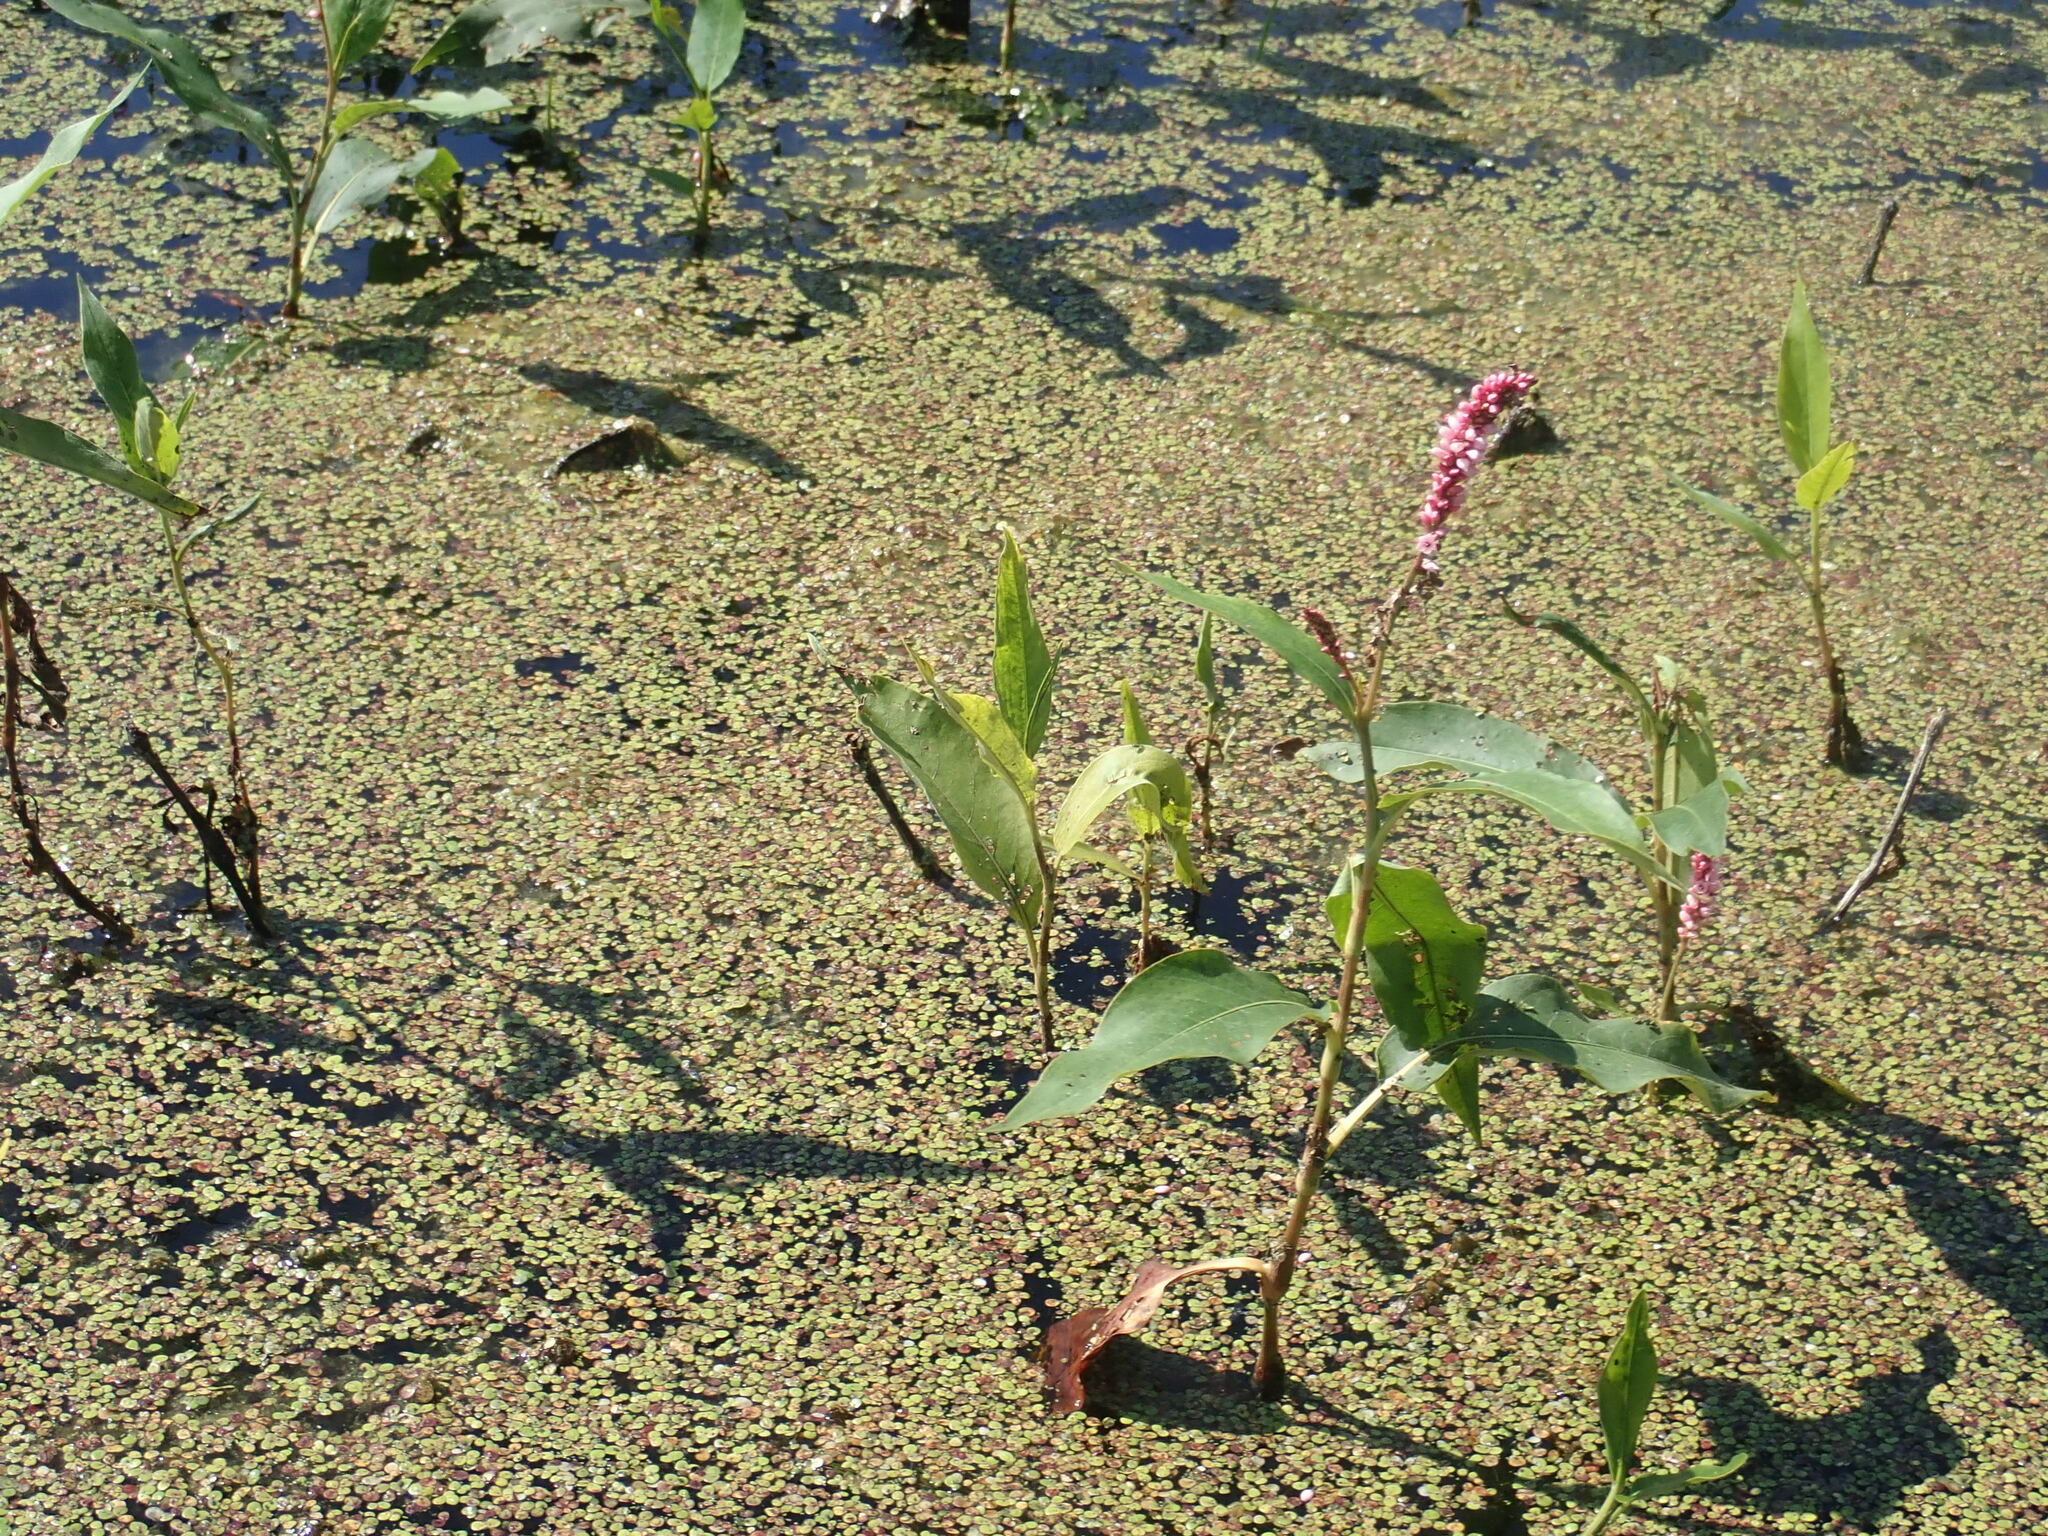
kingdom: Plantae
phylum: Tracheophyta
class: Magnoliopsida
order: Caryophyllales
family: Polygonaceae
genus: Persicaria
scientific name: Persicaria amphibia
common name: Amphibious bistort
